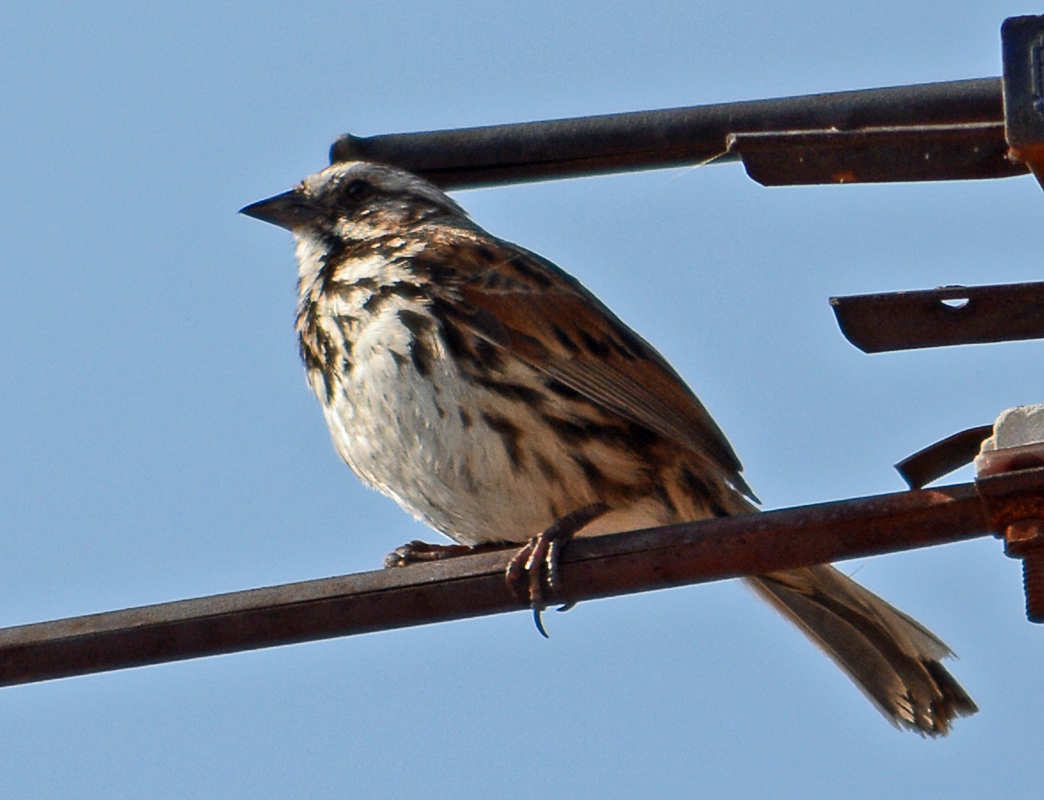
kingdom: Animalia
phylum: Chordata
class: Aves
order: Passeriformes
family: Passerellidae
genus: Melospiza
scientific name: Melospiza melodia
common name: Song sparrow
